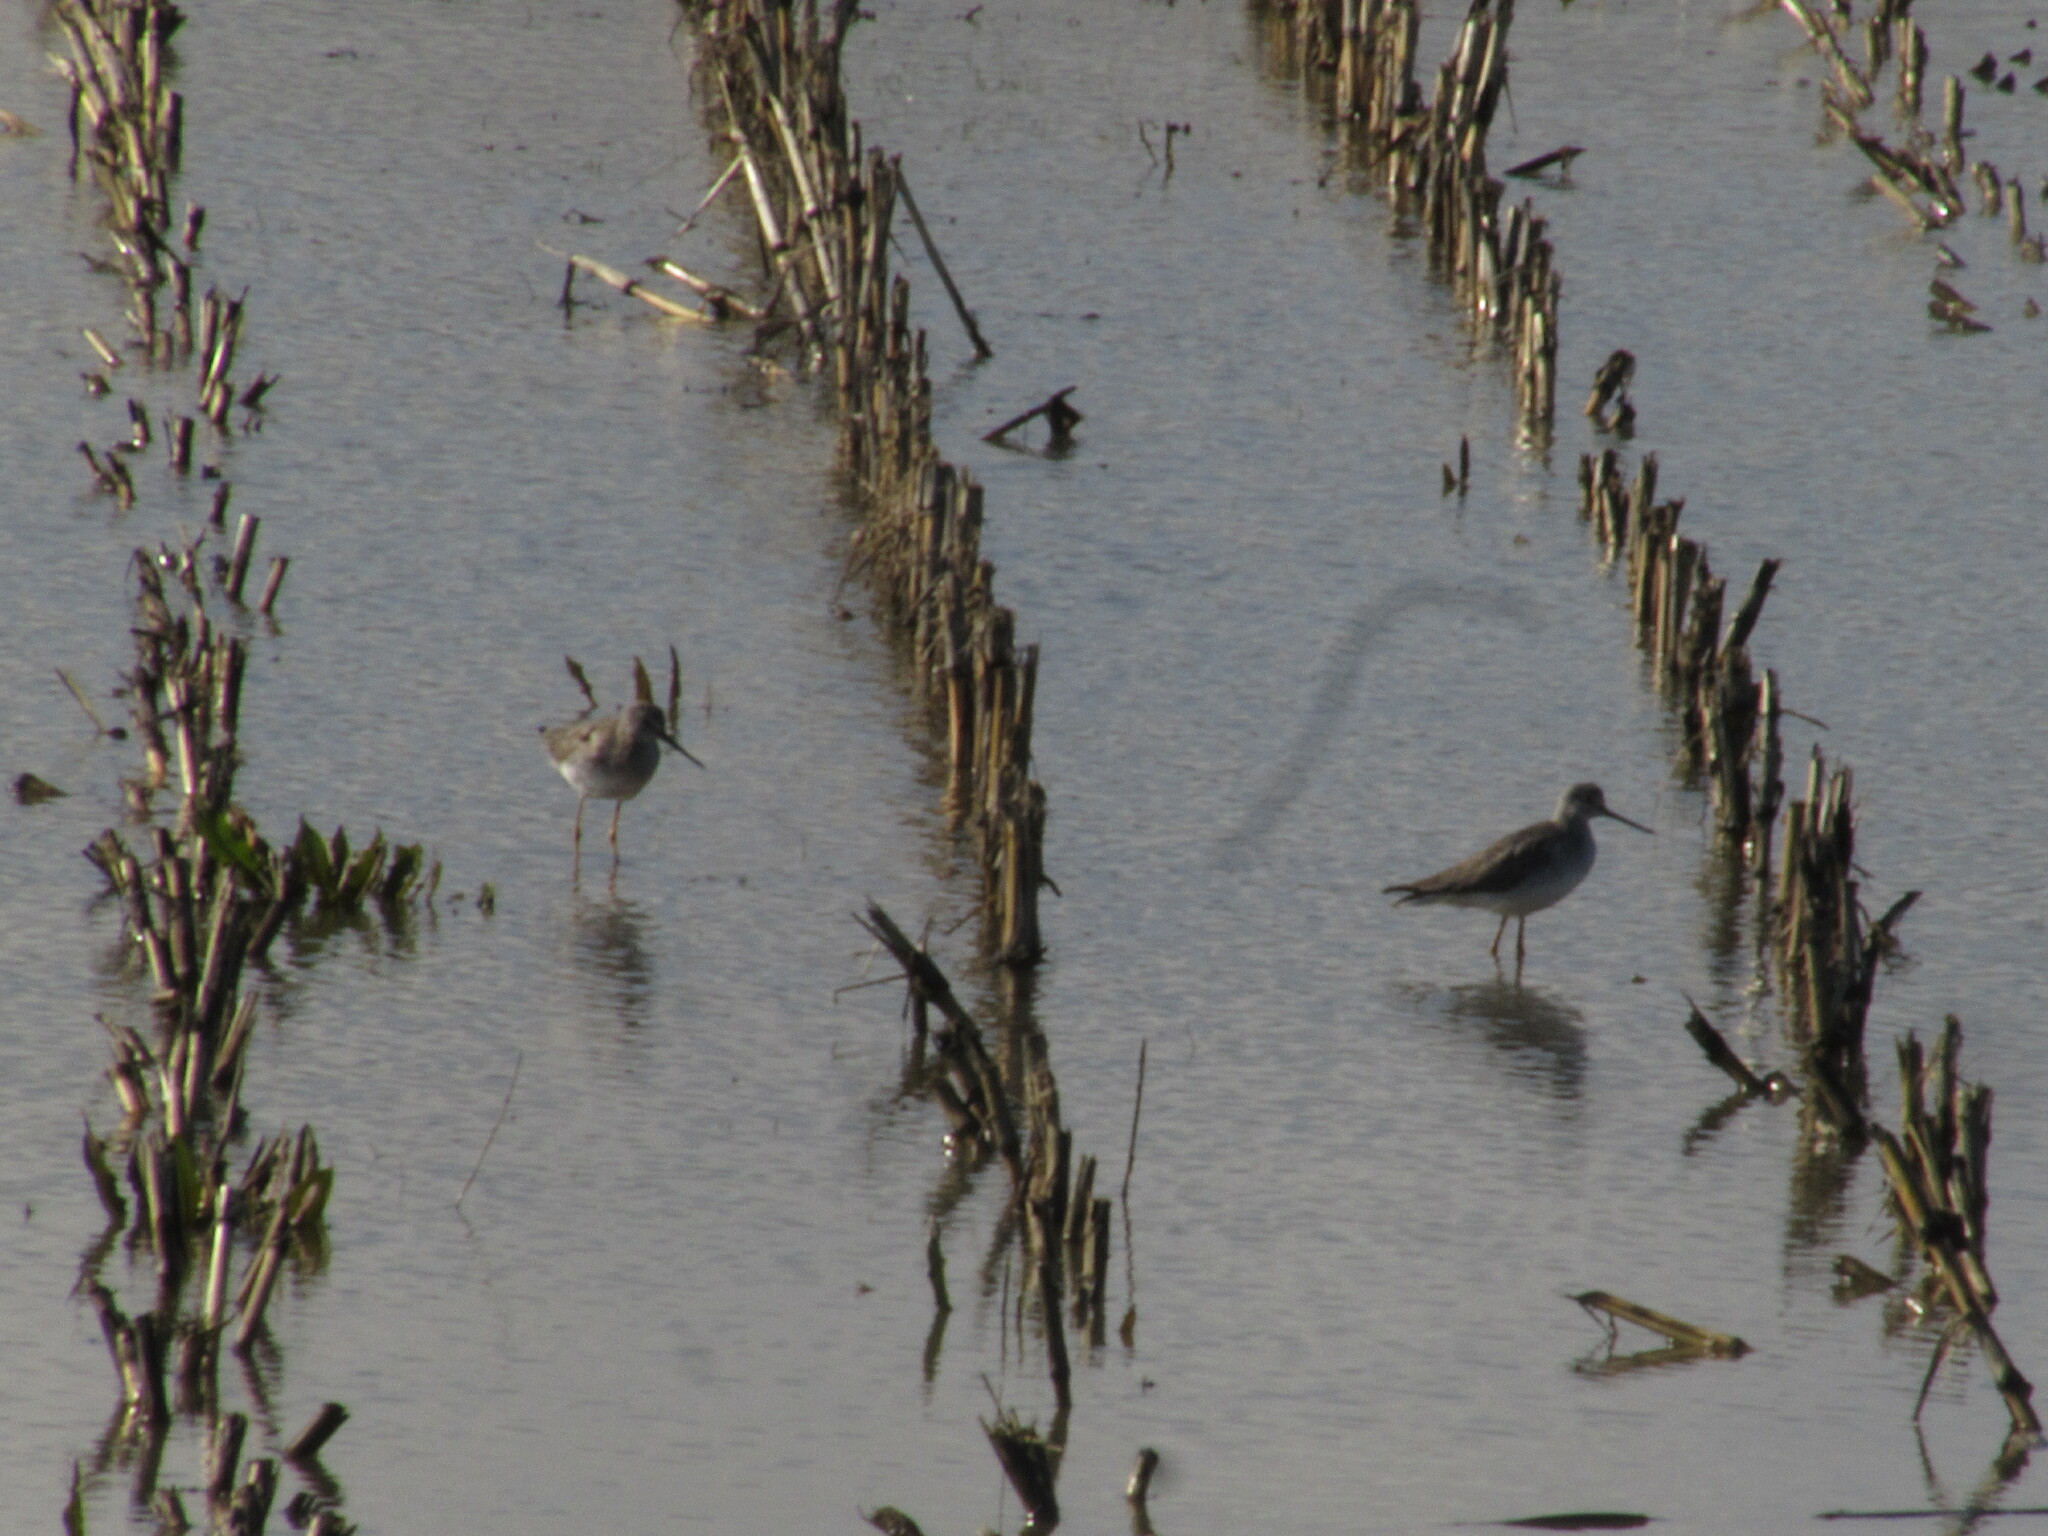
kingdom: Animalia
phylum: Chordata
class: Aves
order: Charadriiformes
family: Scolopacidae
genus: Tringa
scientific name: Tringa melanoleuca
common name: Greater yellowlegs
